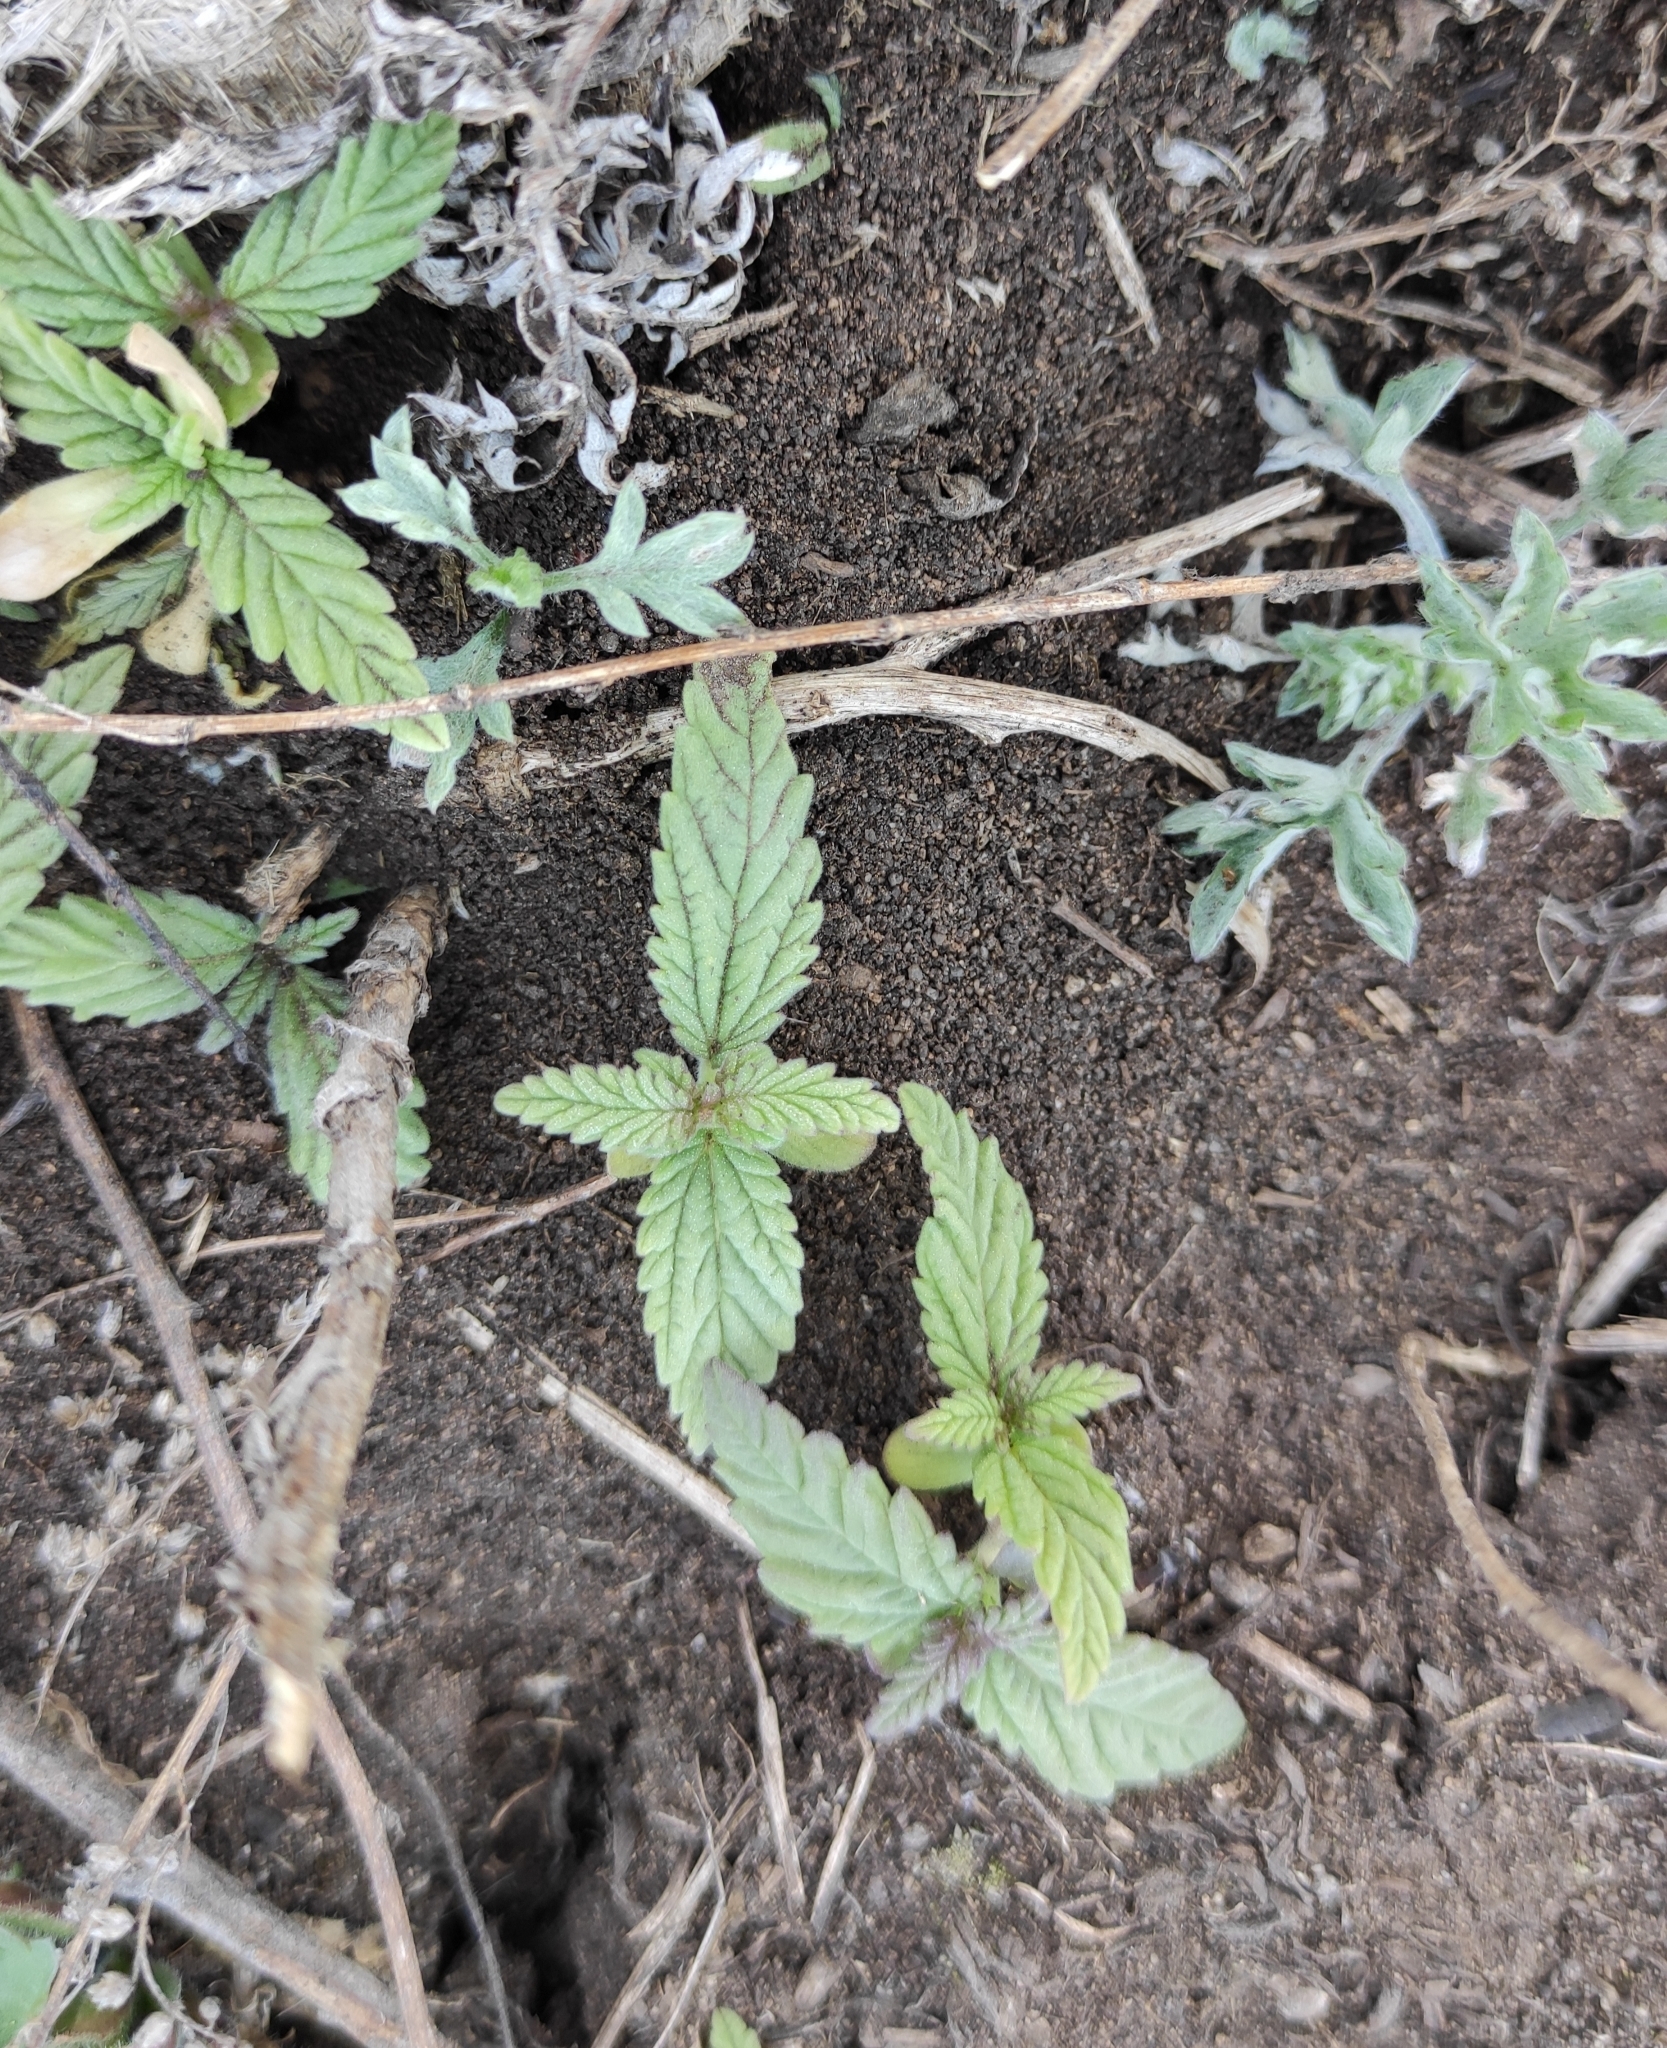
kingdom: Plantae
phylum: Tracheophyta
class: Magnoliopsida
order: Rosales
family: Cannabaceae
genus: Cannabis
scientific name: Cannabis sativa
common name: Hemp
